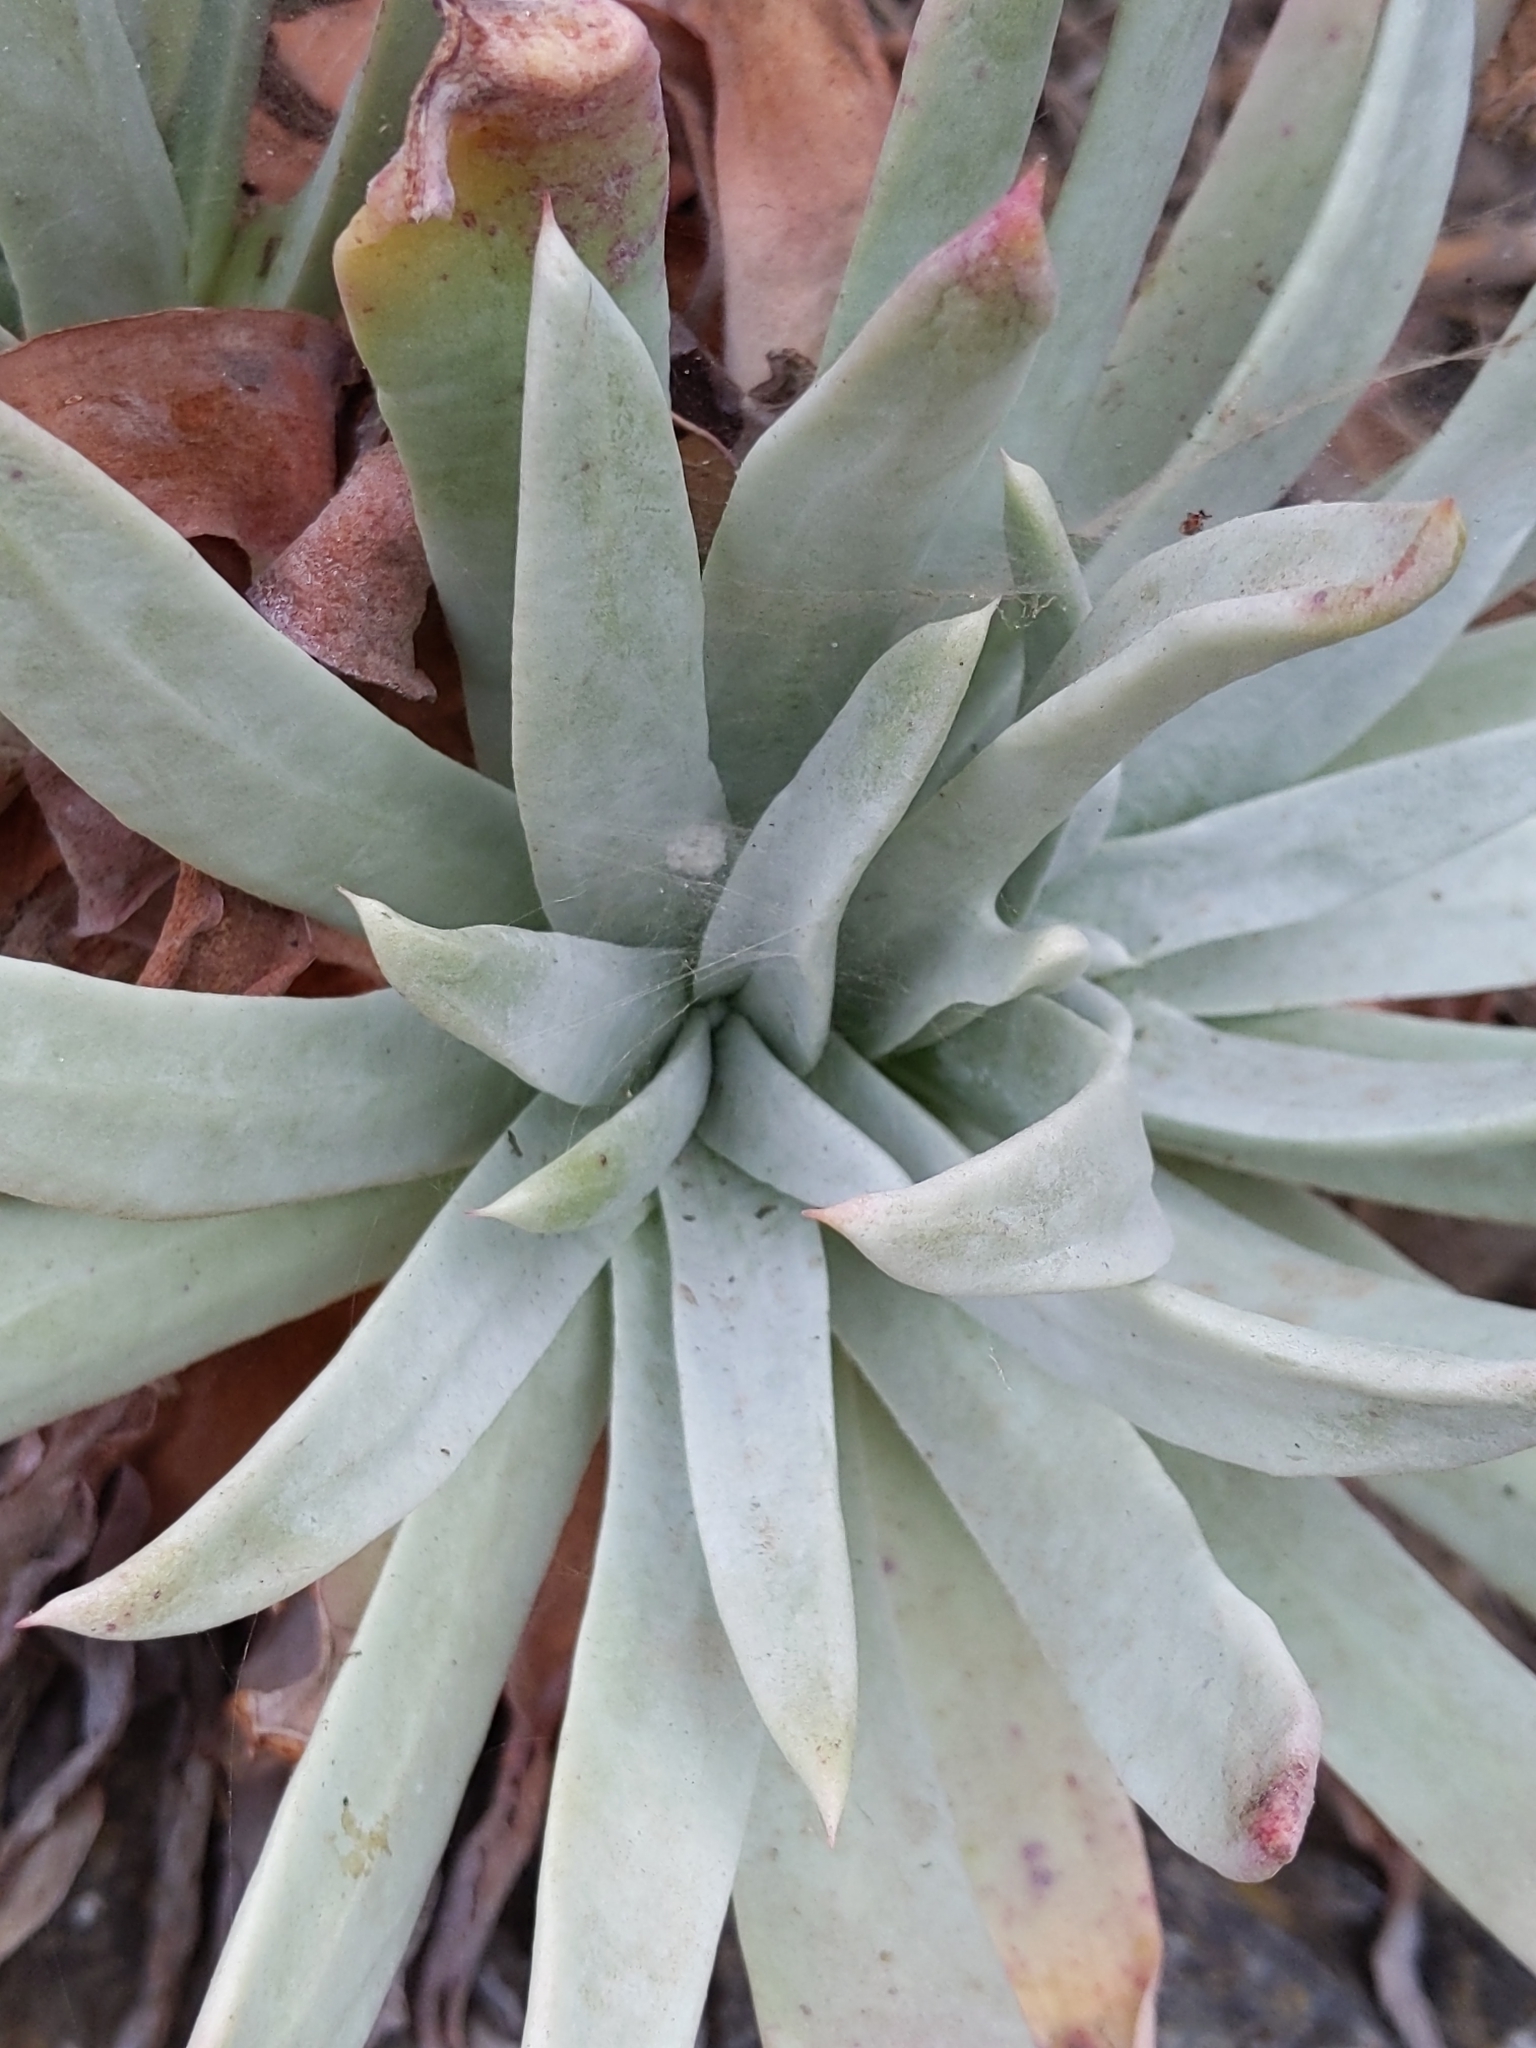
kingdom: Plantae
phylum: Tracheophyta
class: Magnoliopsida
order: Saxifragales
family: Crassulaceae
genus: Dudleya
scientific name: Dudleya virens
